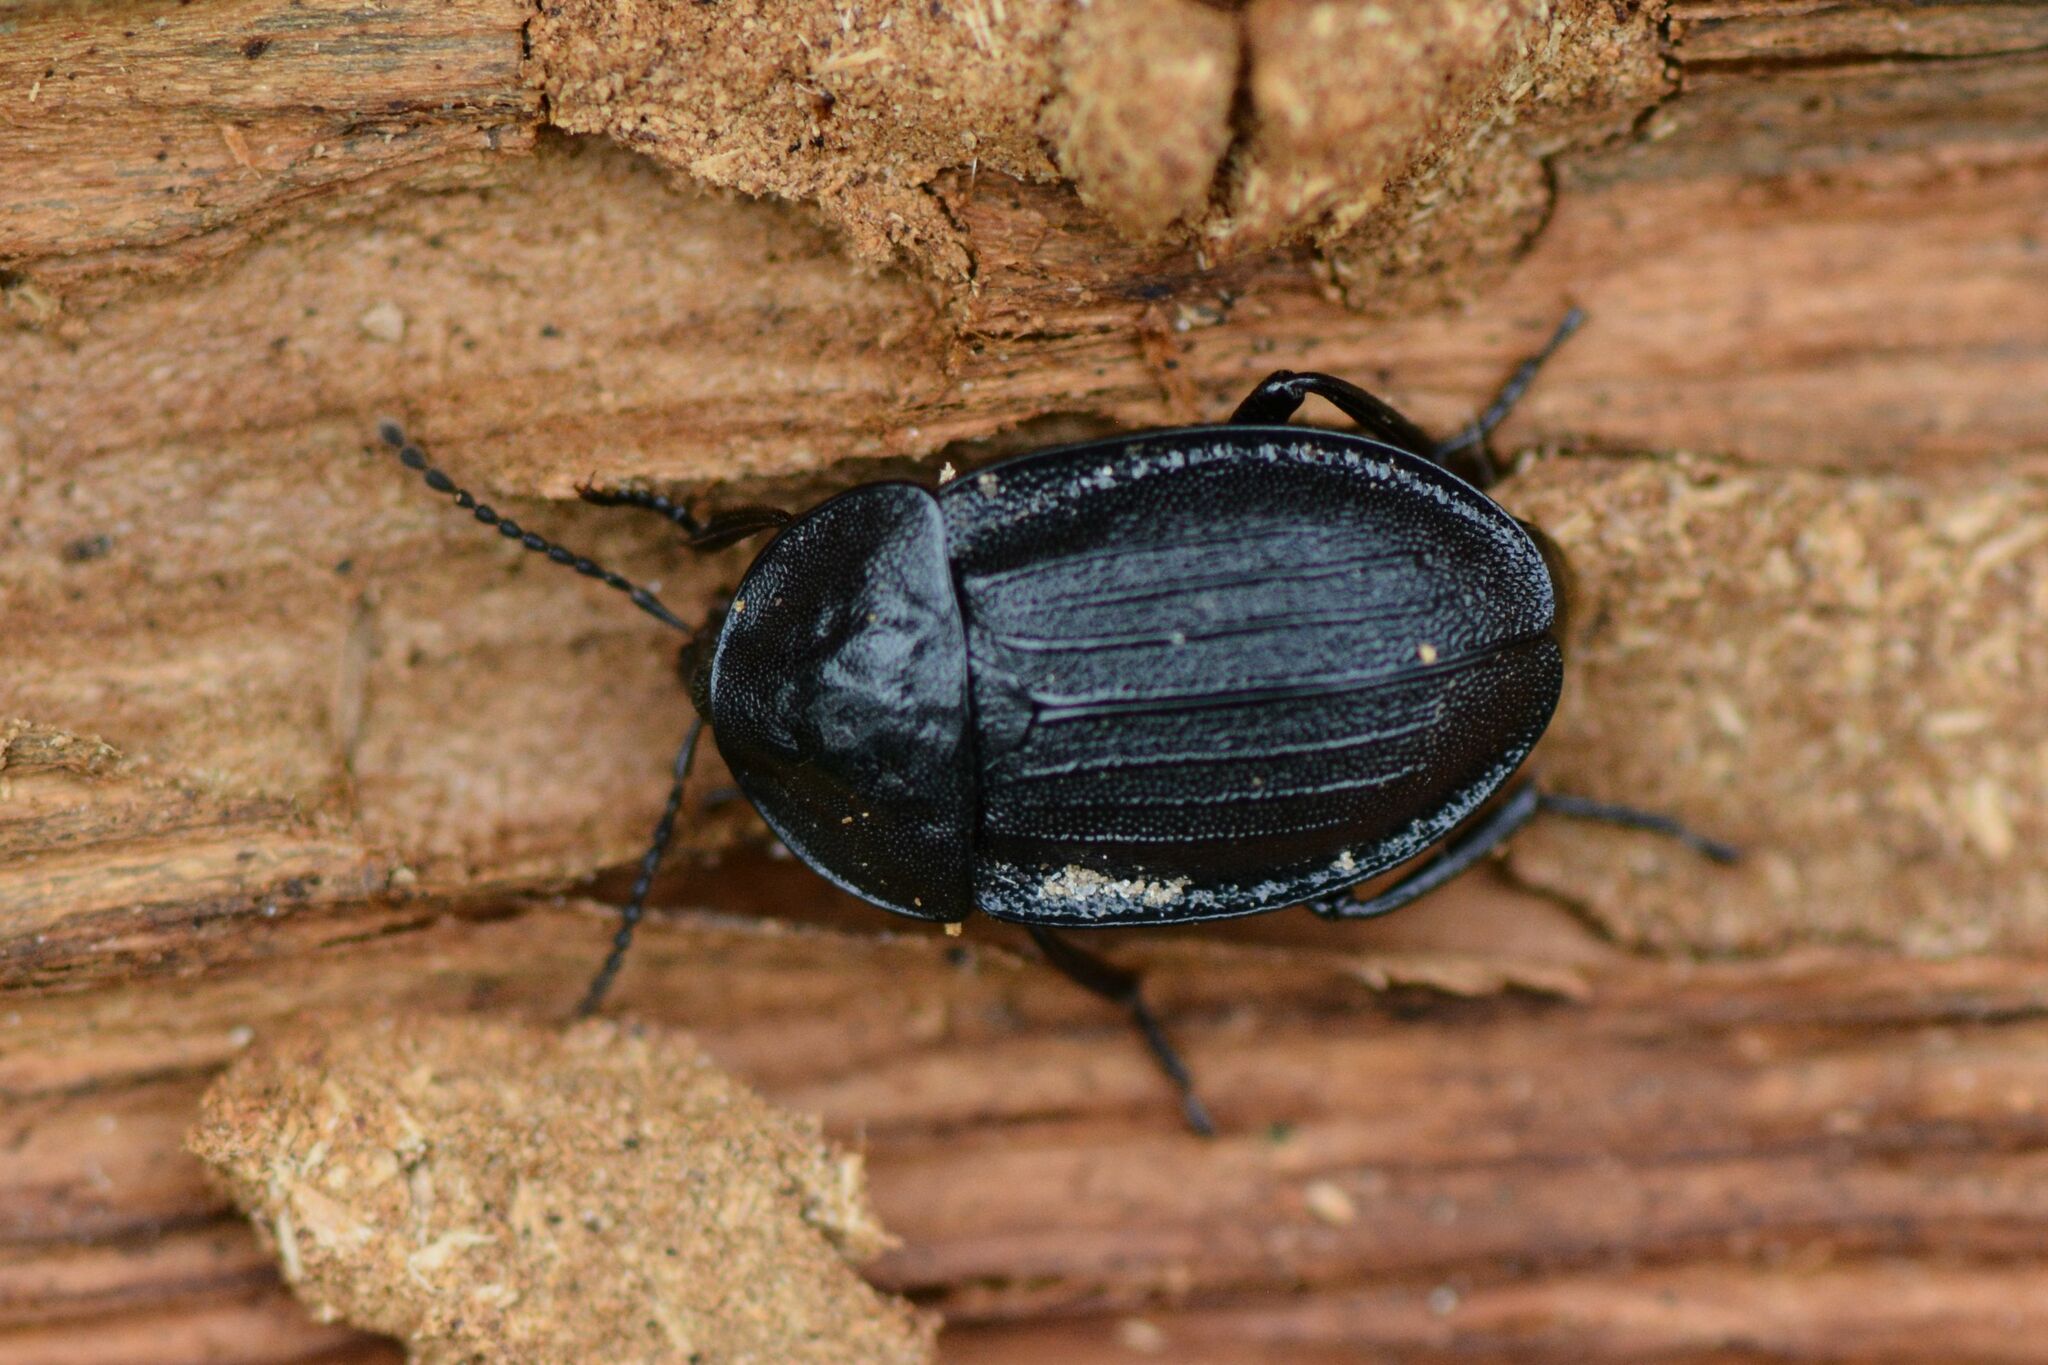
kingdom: Animalia
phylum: Arthropoda
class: Insecta
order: Coleoptera
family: Staphylinidae
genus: Silpha
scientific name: Silpha atrata
